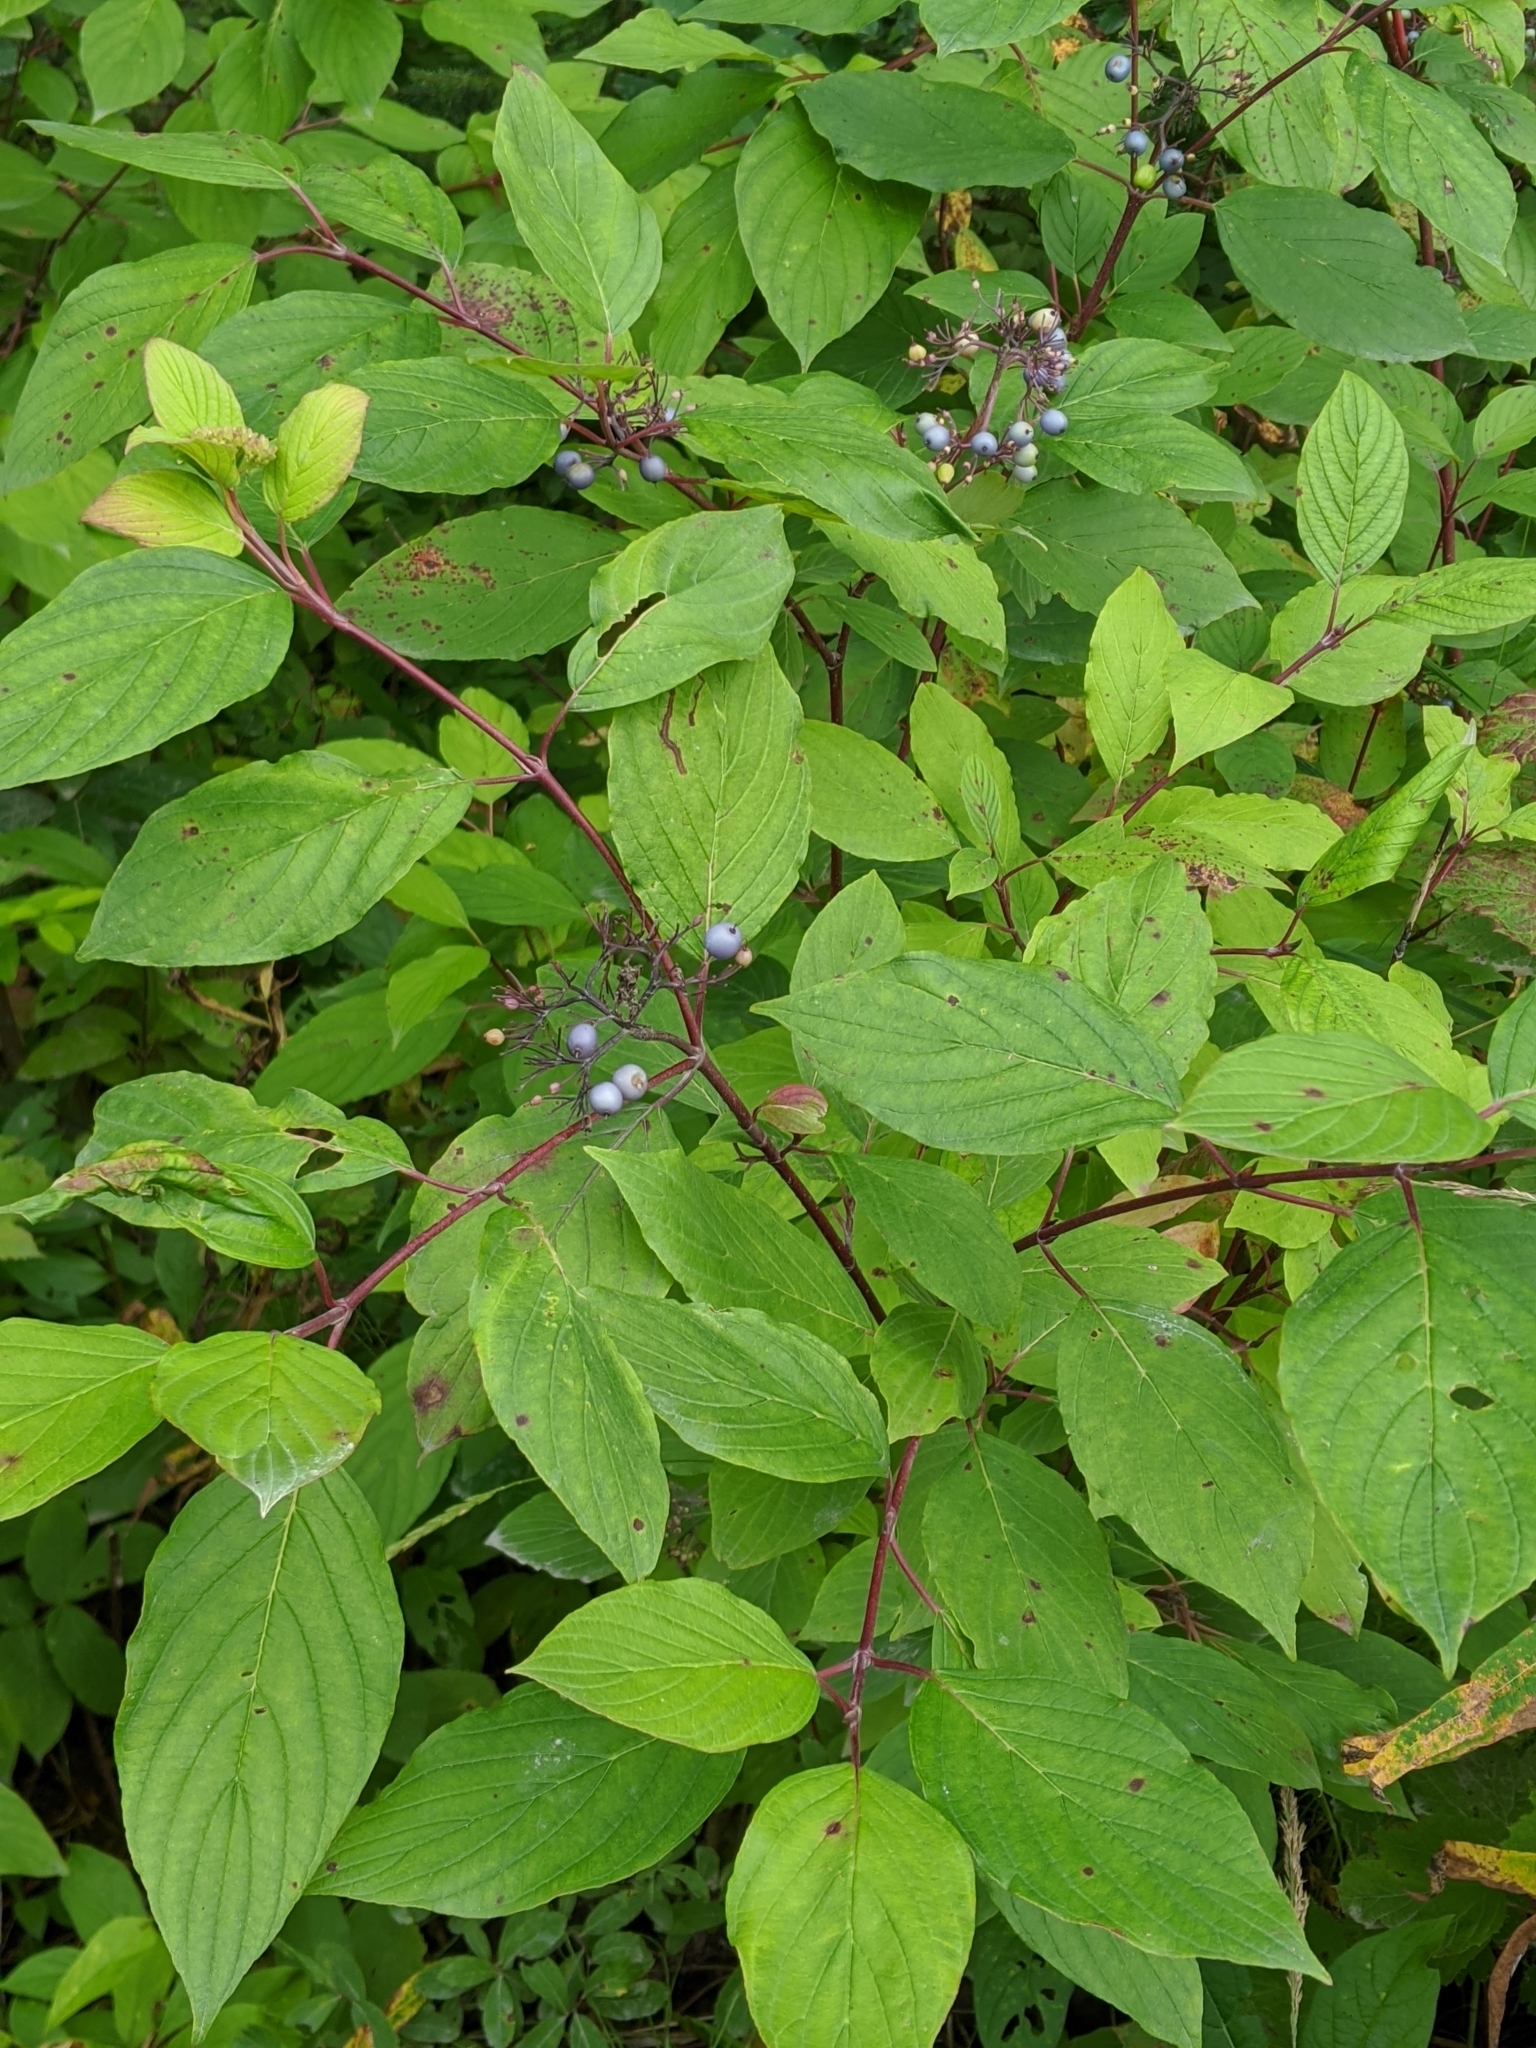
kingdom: Plantae
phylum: Tracheophyta
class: Magnoliopsida
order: Cornales
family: Cornaceae
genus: Cornus
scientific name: Cornus sericea
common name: Red-osier dogwood
